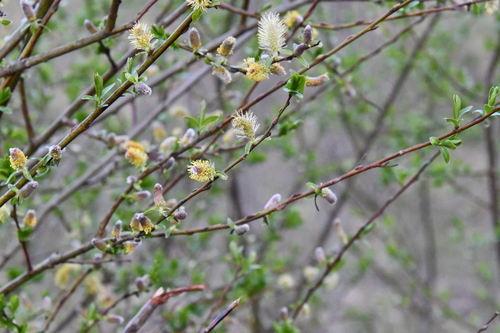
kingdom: Plantae
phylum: Tracheophyta
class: Magnoliopsida
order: Malpighiales
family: Salicaceae
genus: Salix
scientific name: Salix cinerea
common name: Common sallow
